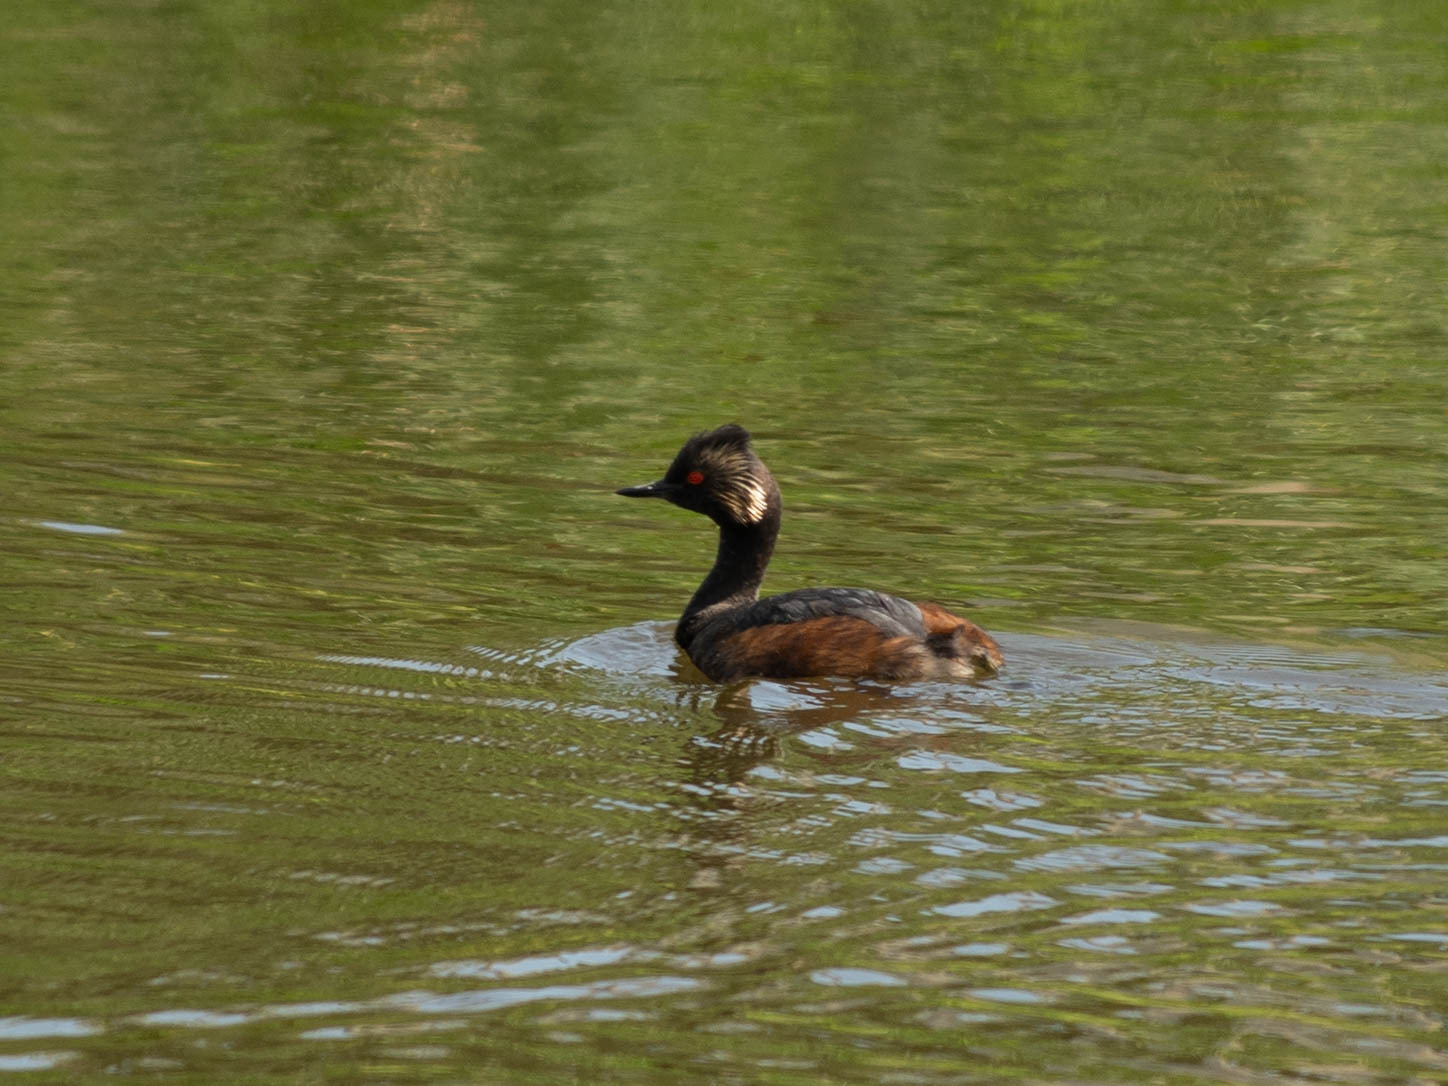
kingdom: Animalia
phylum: Chordata
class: Aves
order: Podicipediformes
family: Podicipedidae
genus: Podiceps
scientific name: Podiceps nigricollis
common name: Black-necked grebe
